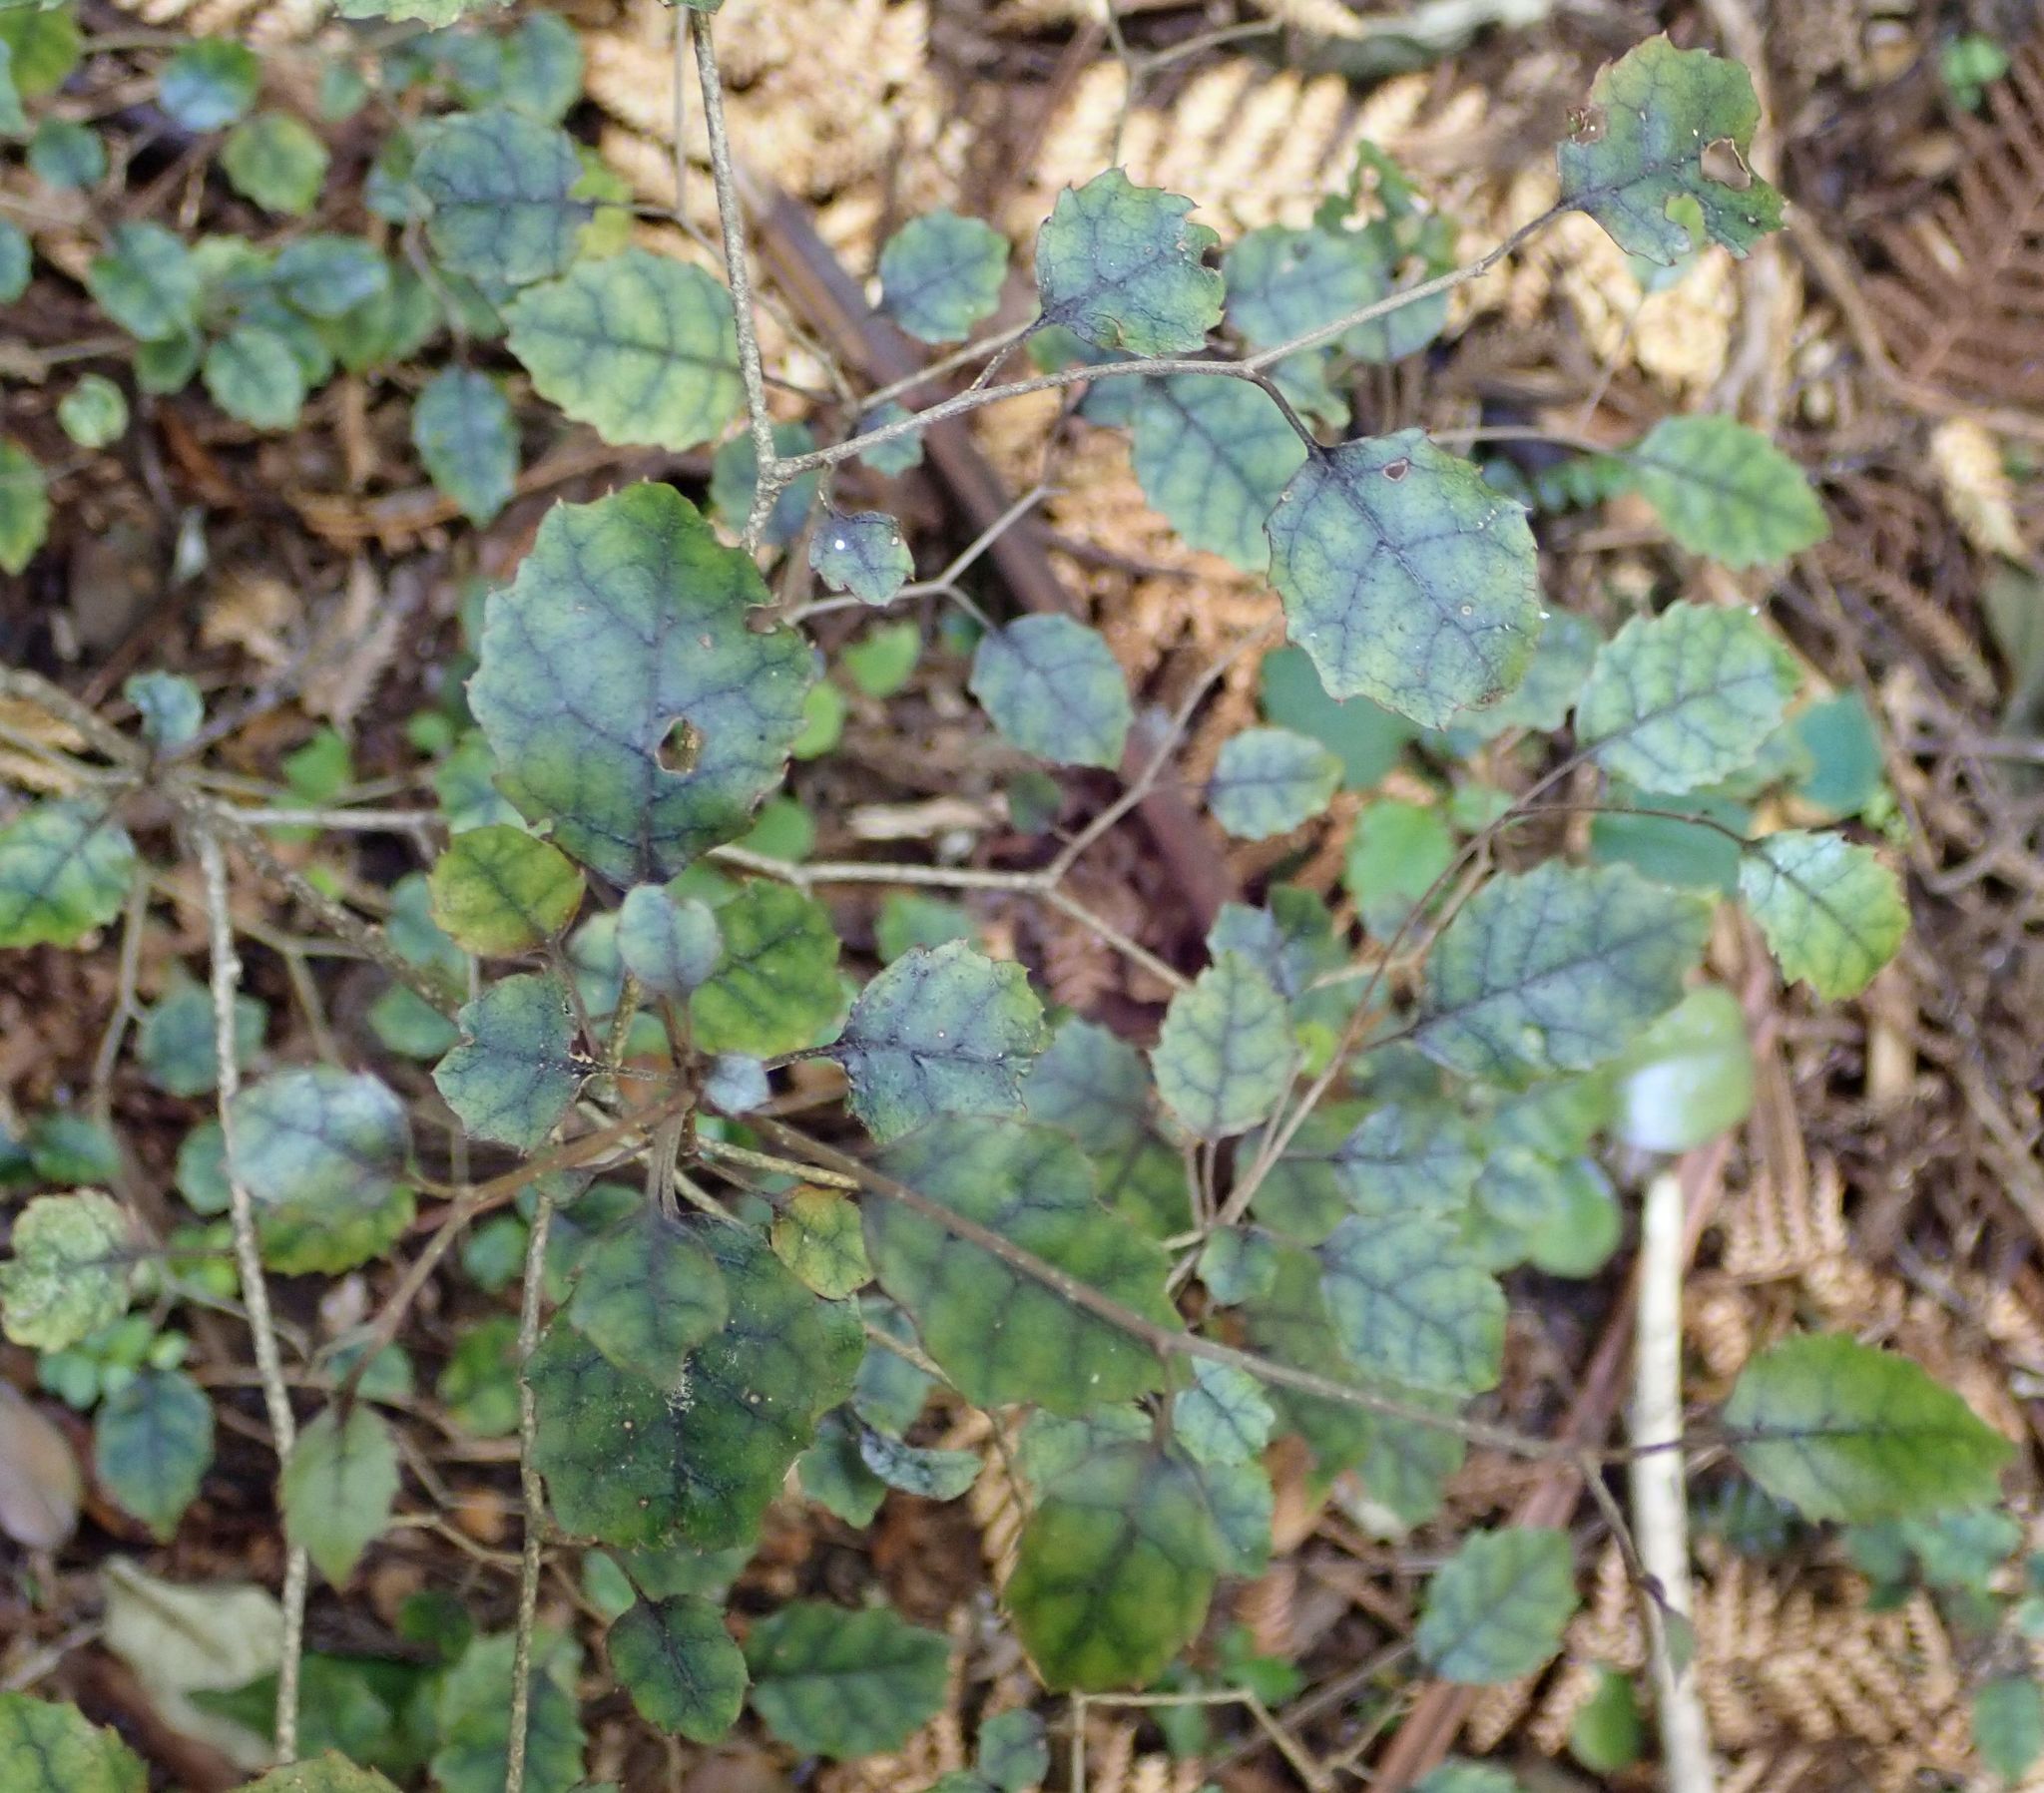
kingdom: Plantae
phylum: Tracheophyta
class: Magnoliopsida
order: Asterales
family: Rousseaceae
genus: Carpodetus
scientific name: Carpodetus serratus
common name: White mapau
